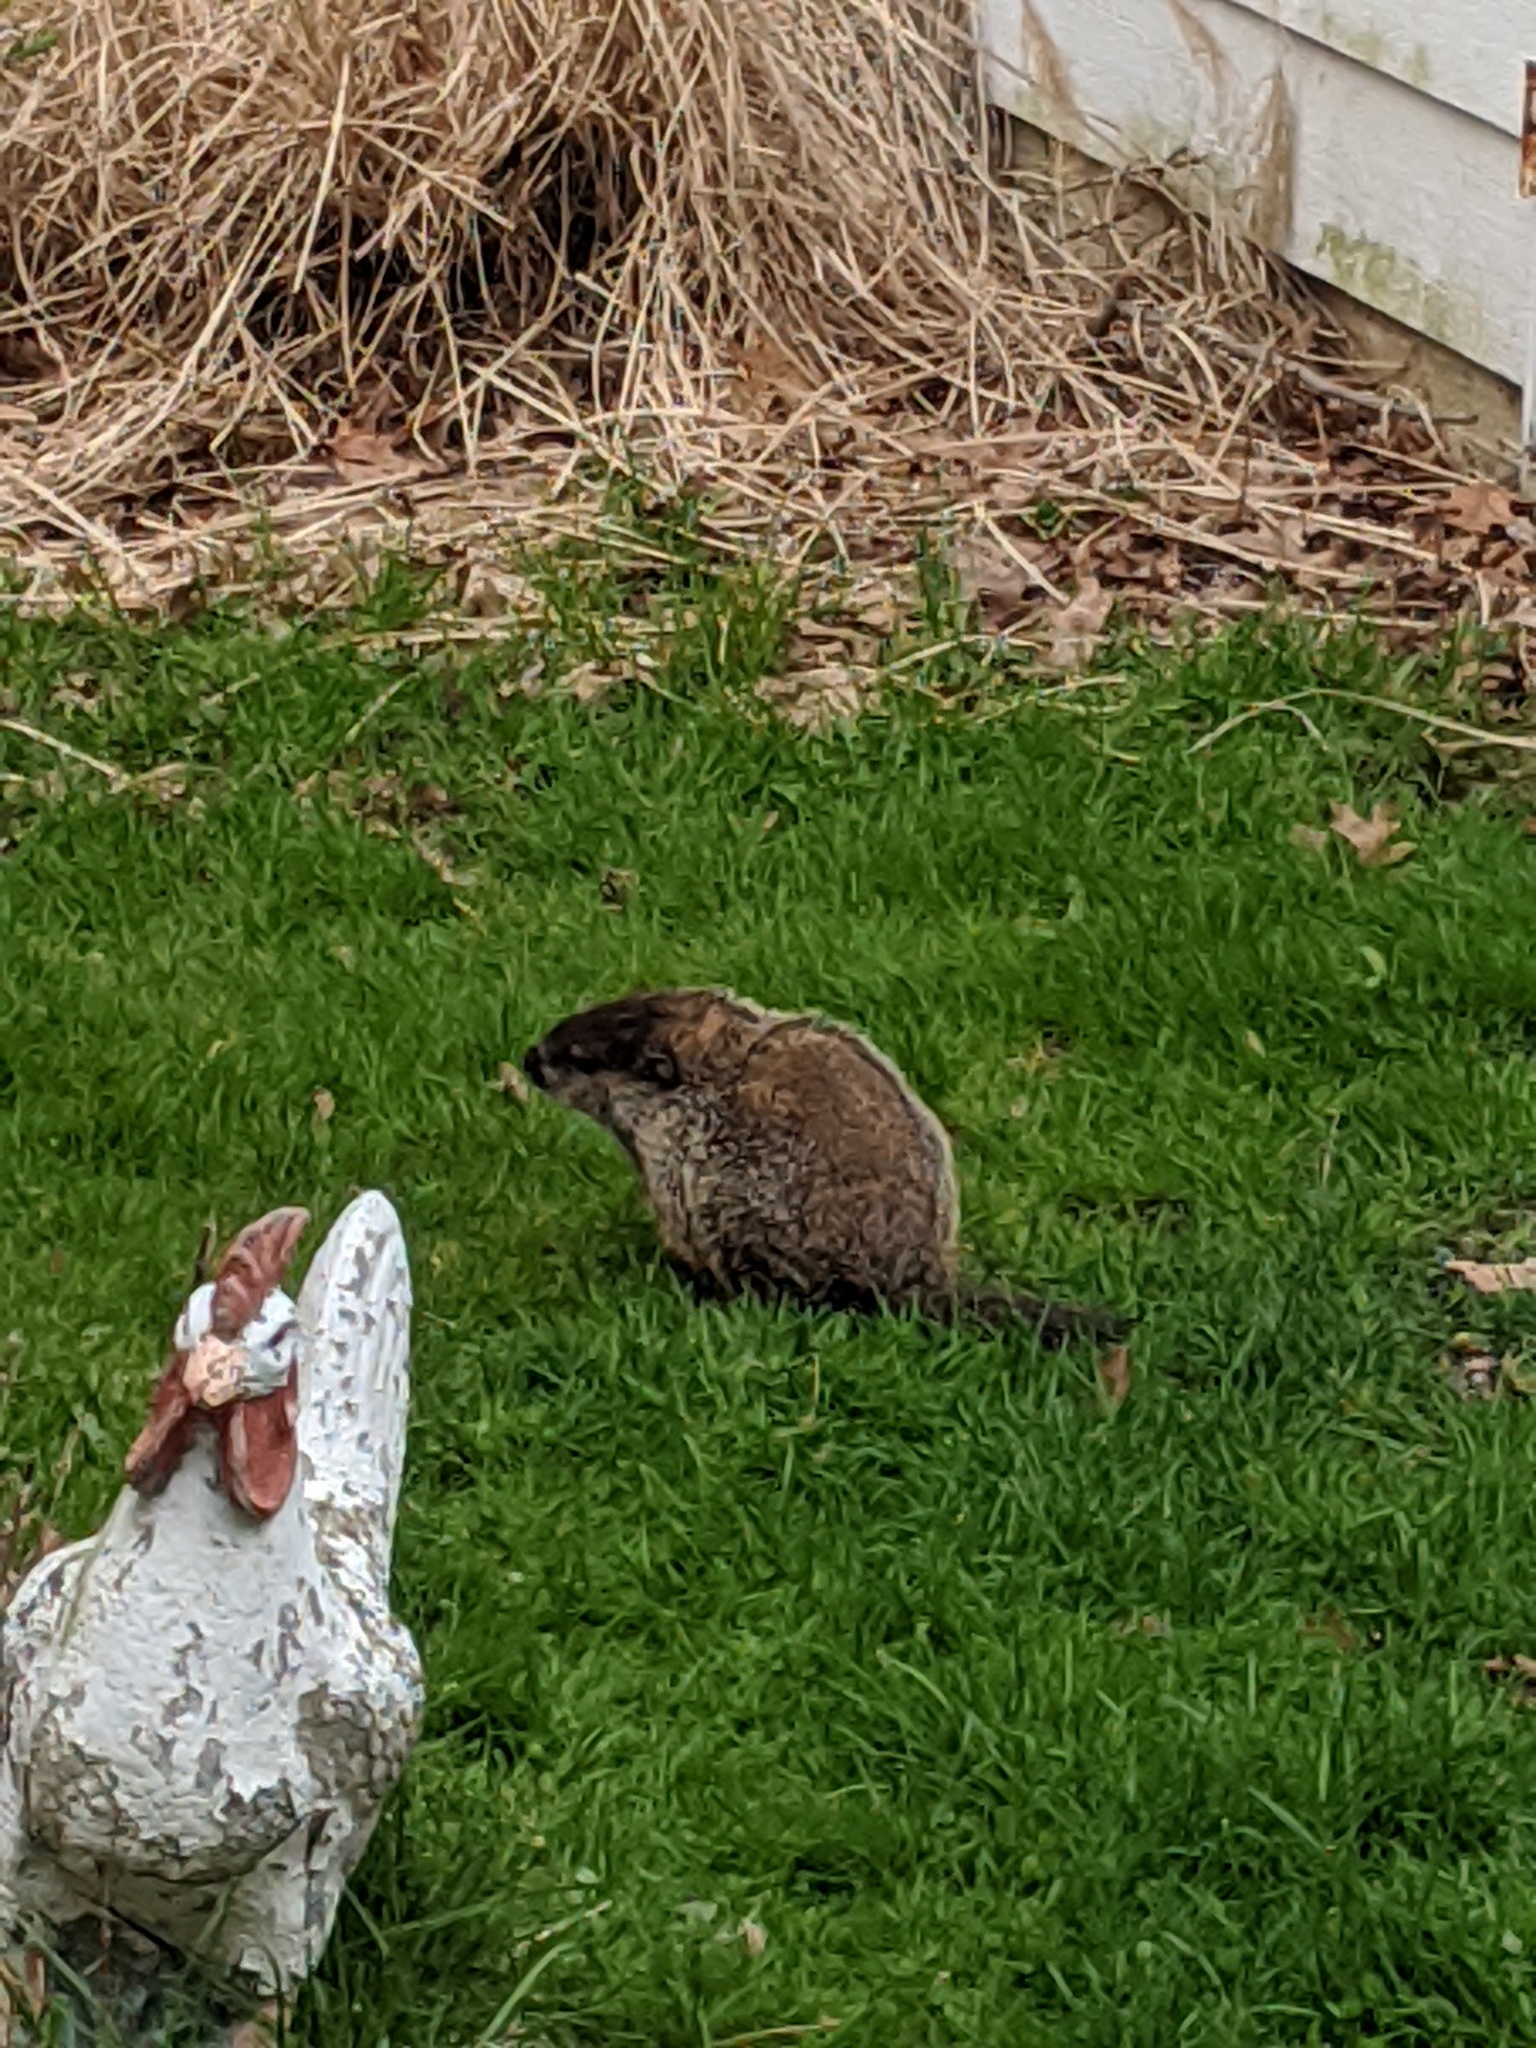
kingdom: Animalia
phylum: Chordata
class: Mammalia
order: Rodentia
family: Sciuridae
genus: Marmota
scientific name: Marmota monax
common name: Groundhog
